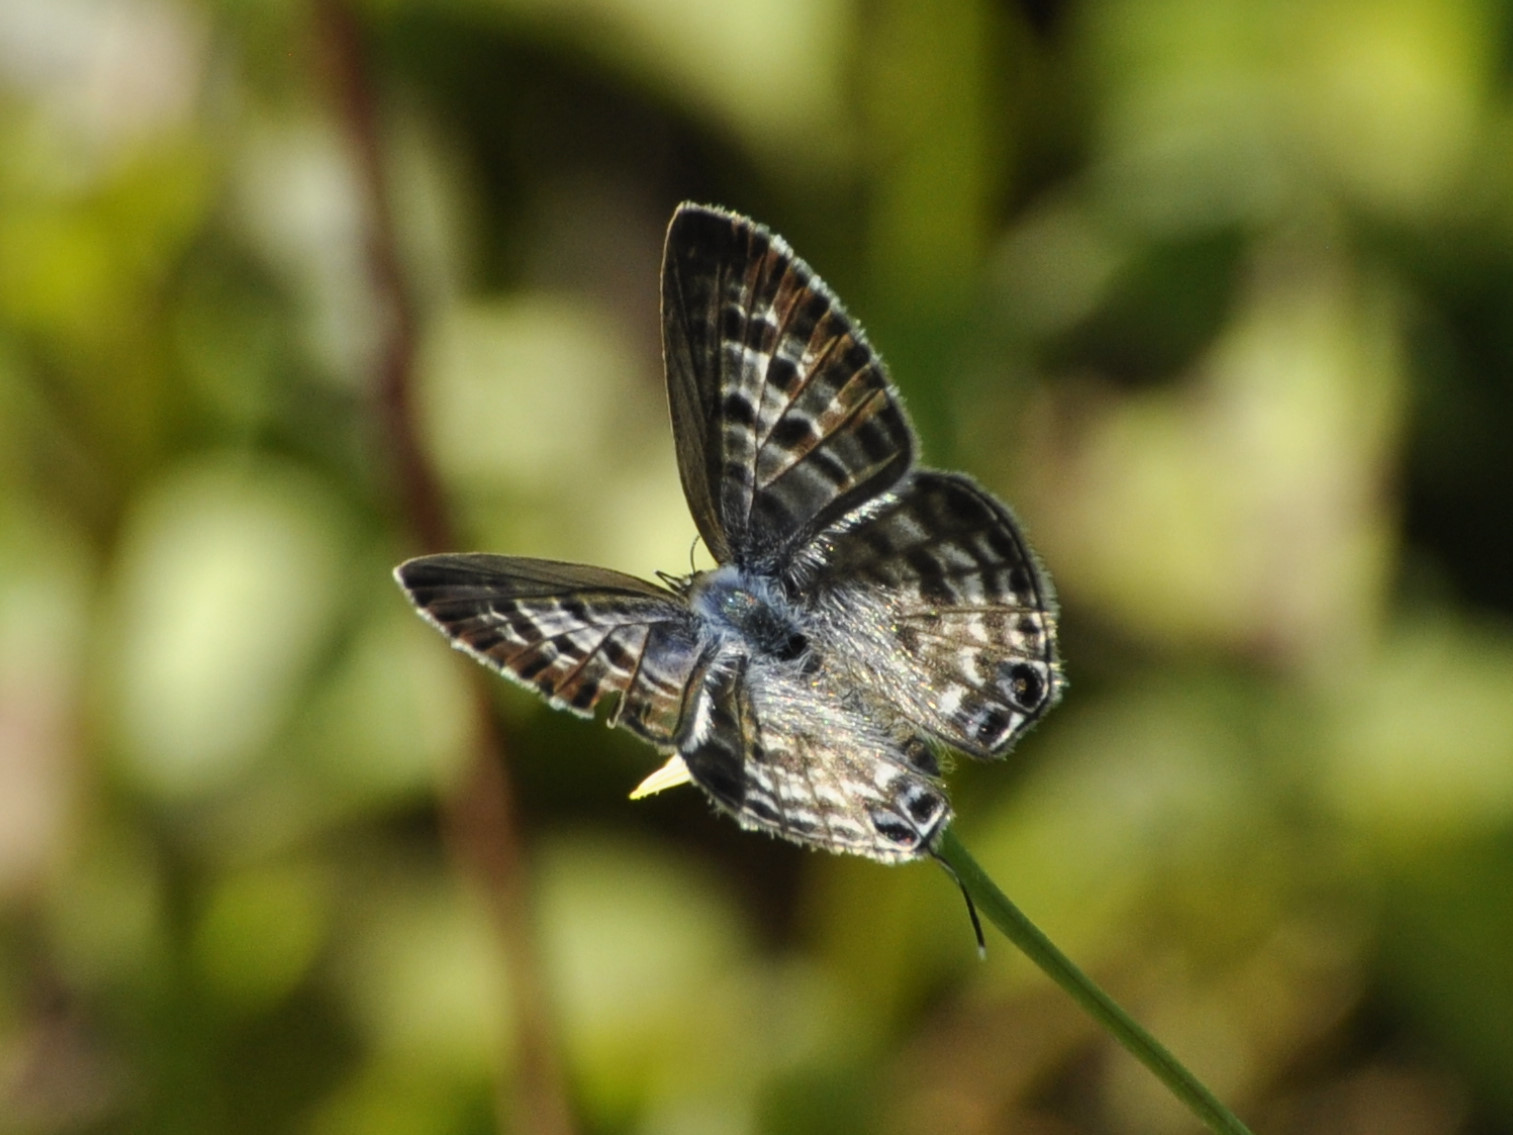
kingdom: Animalia
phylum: Arthropoda
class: Insecta
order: Lepidoptera
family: Lycaenidae
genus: Leptotes
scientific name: Leptotes
